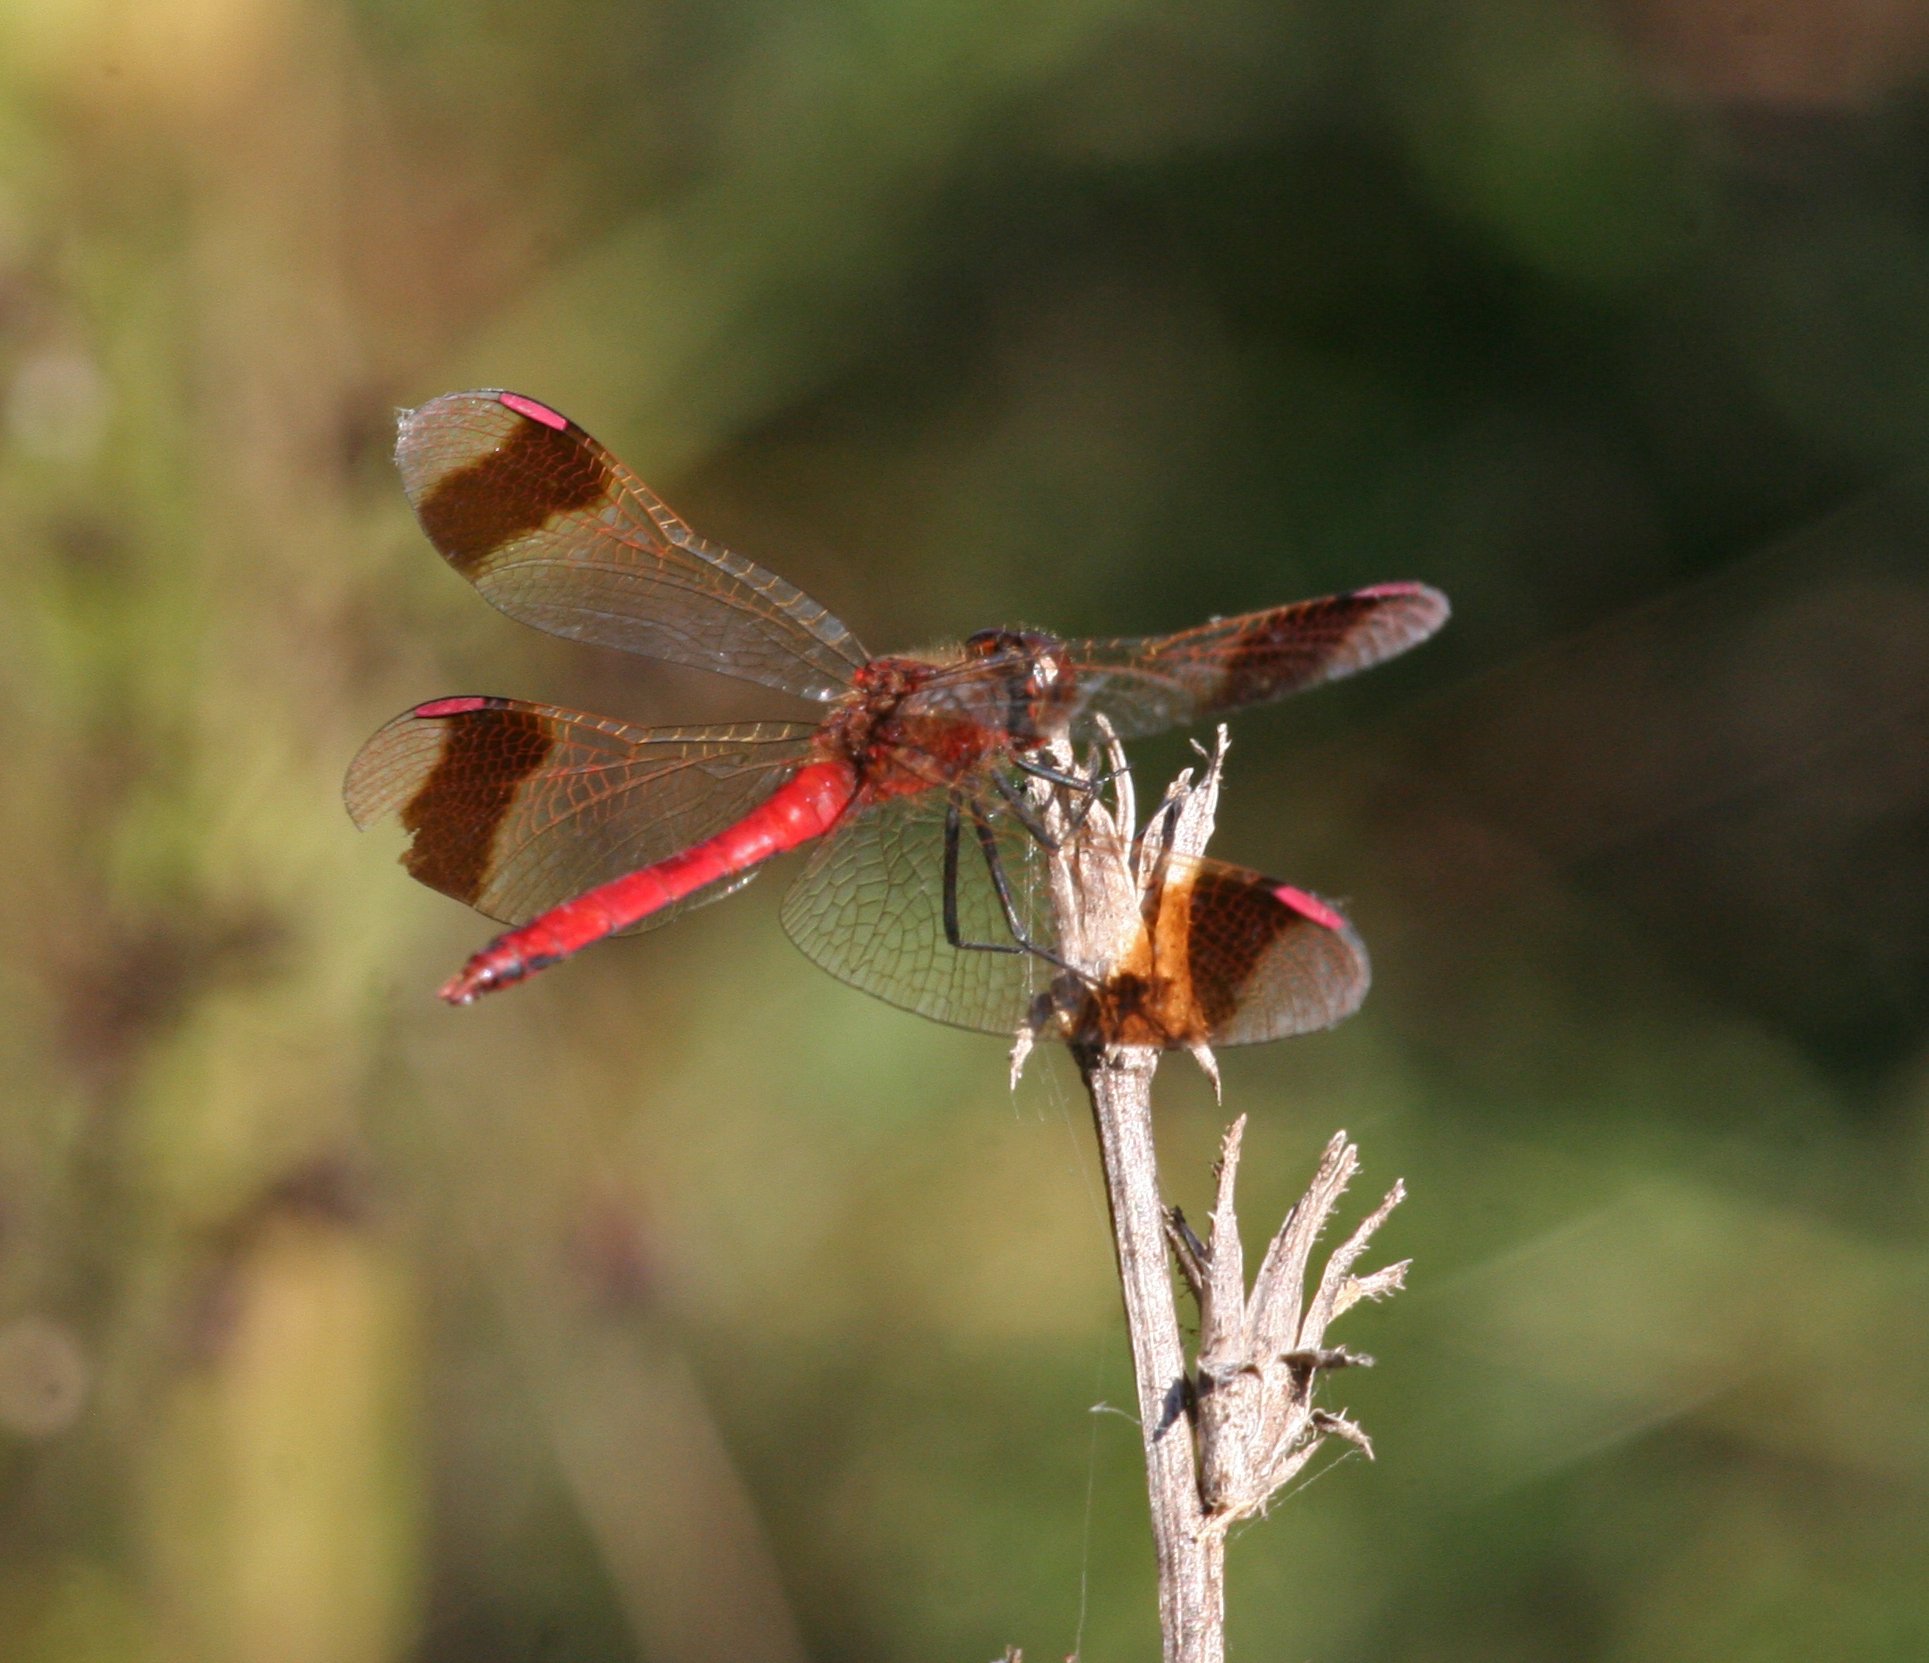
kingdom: Animalia
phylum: Arthropoda
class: Insecta
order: Odonata
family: Libellulidae
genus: Sympetrum
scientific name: Sympetrum pedemontanum
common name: Banded darter
